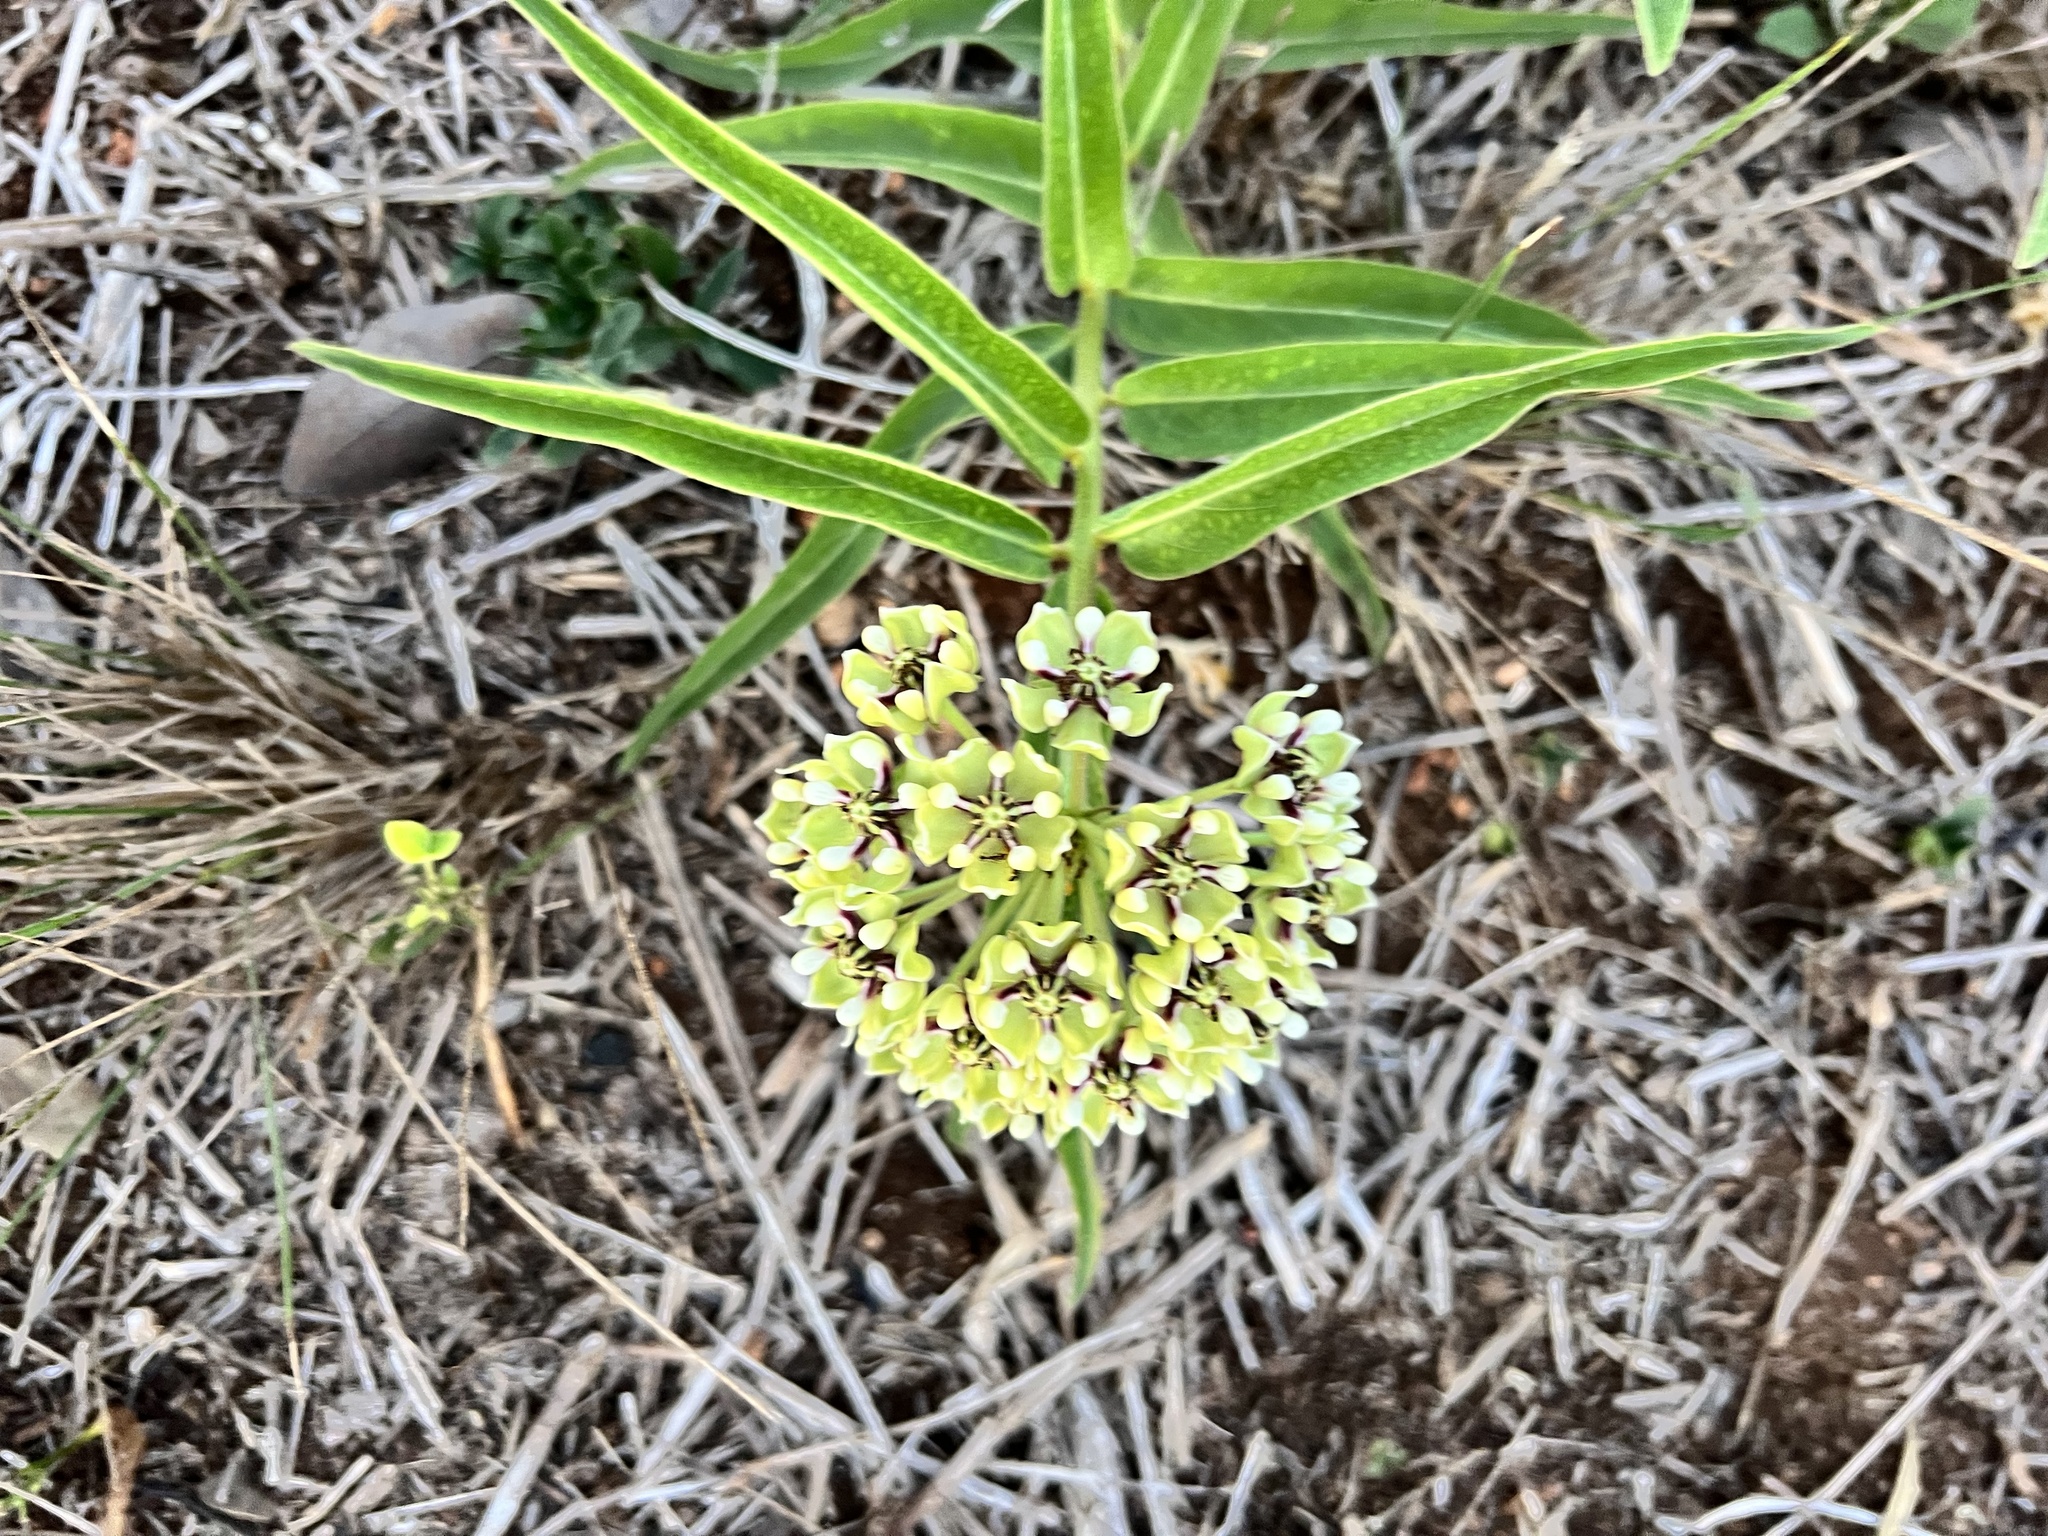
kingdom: Plantae
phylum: Tracheophyta
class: Magnoliopsida
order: Gentianales
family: Apocynaceae
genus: Asclepias
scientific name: Asclepias asperula
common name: Antelope horns
